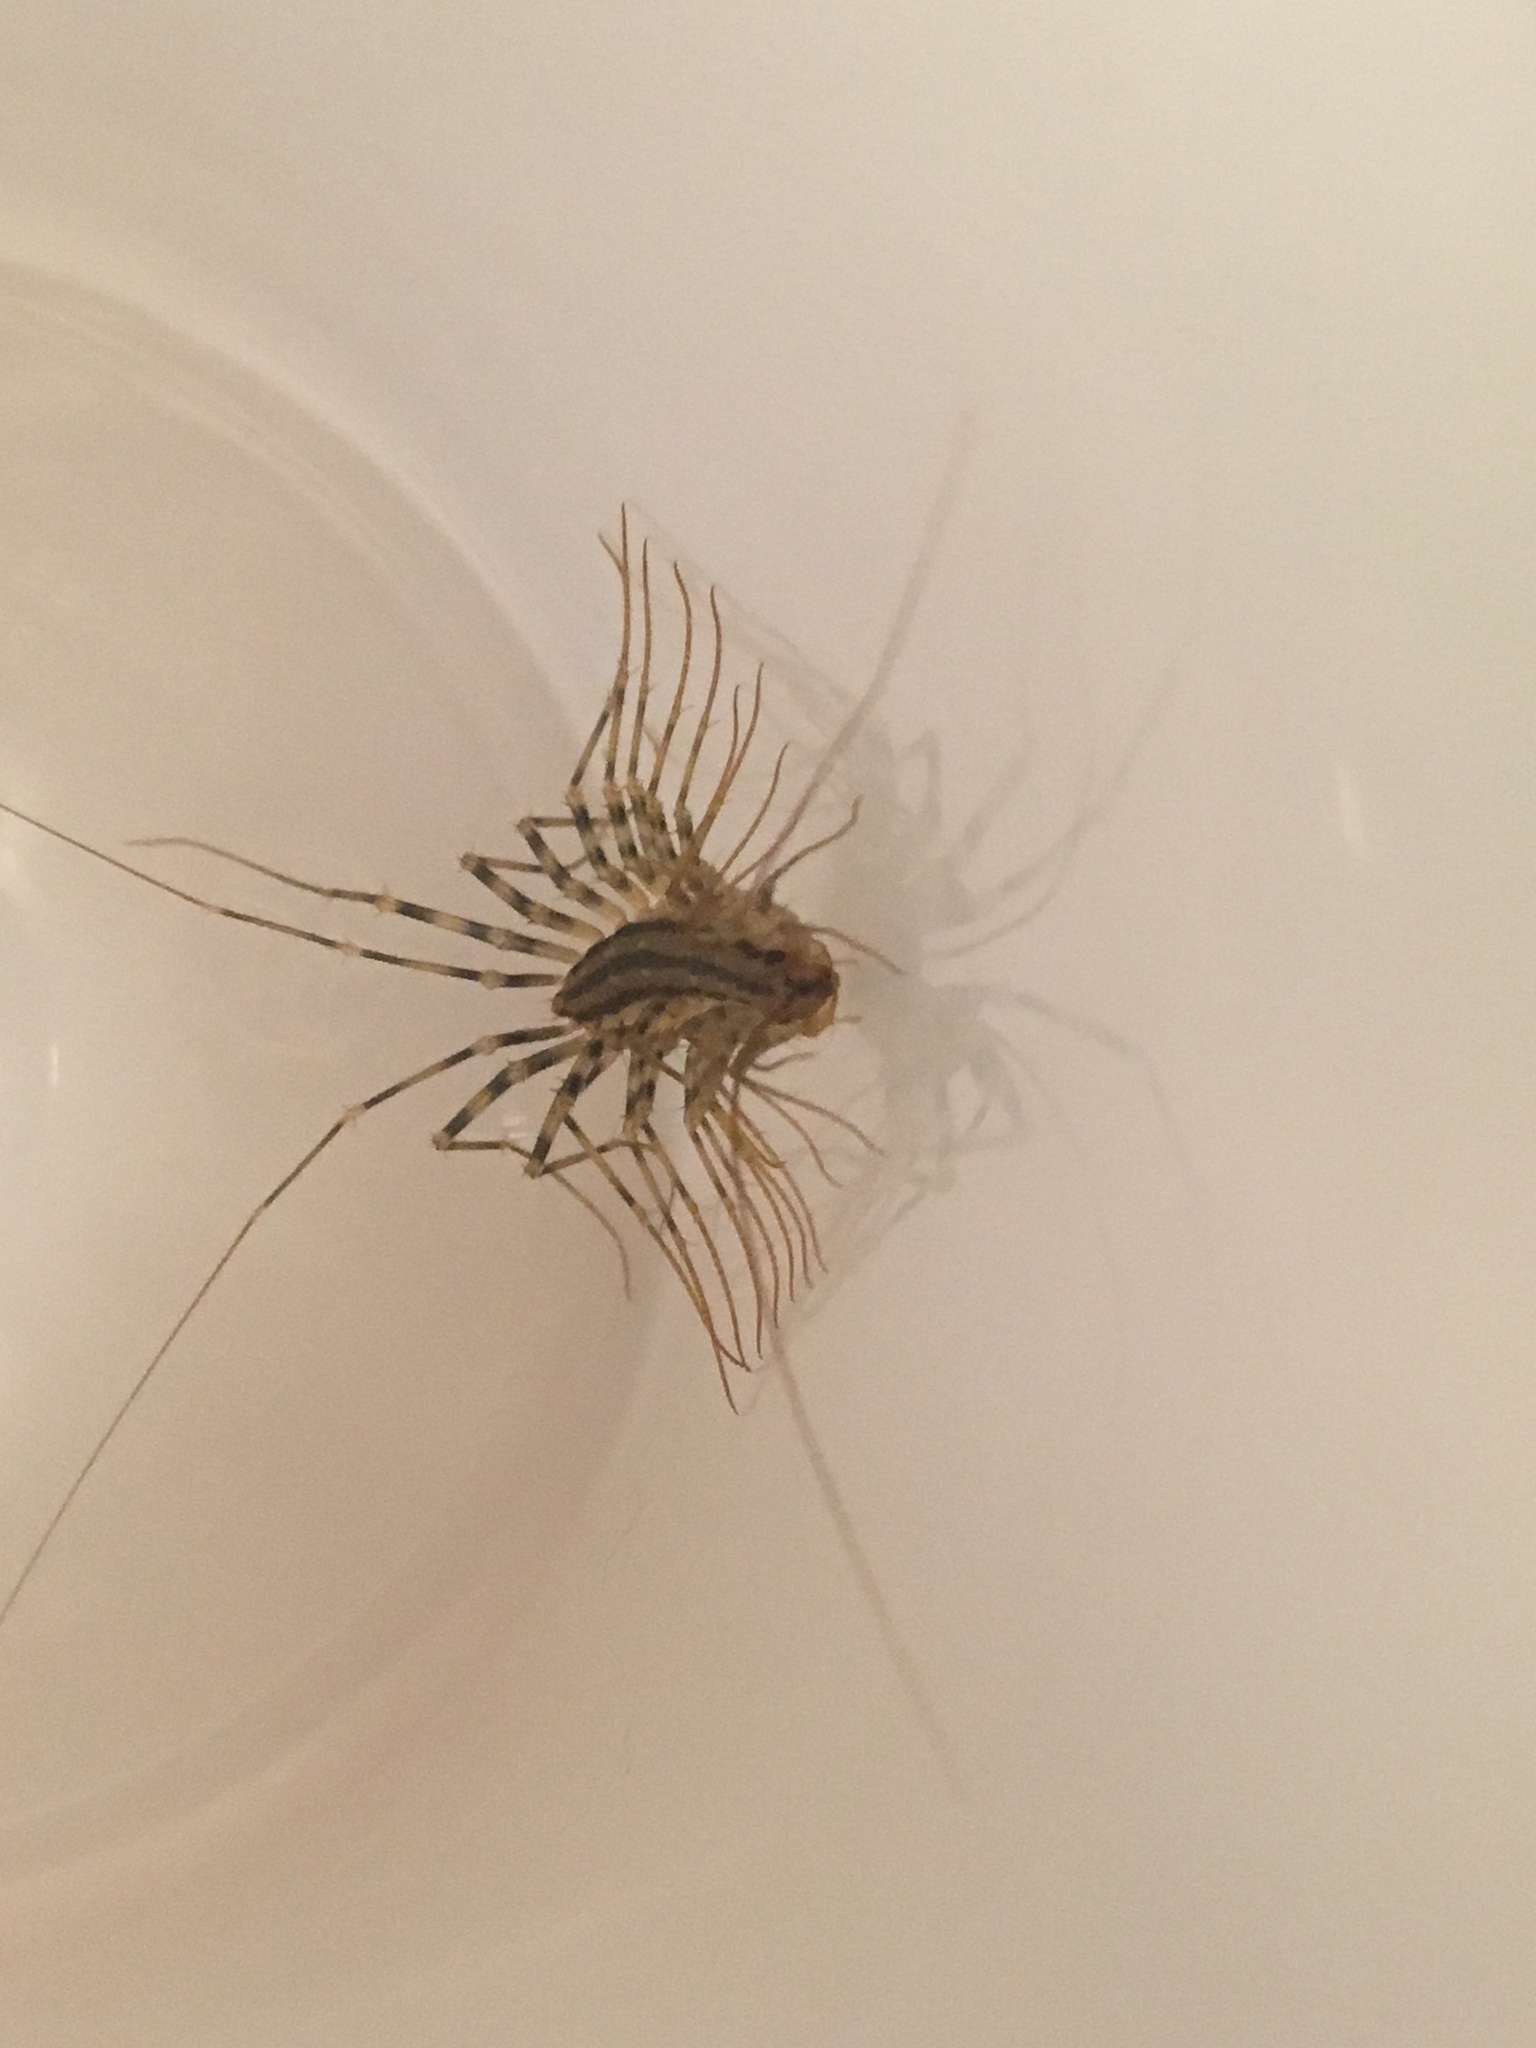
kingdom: Animalia
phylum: Arthropoda
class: Chilopoda
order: Scutigeromorpha
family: Scutigeridae
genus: Scutigera
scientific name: Scutigera coleoptrata
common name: House centipede
